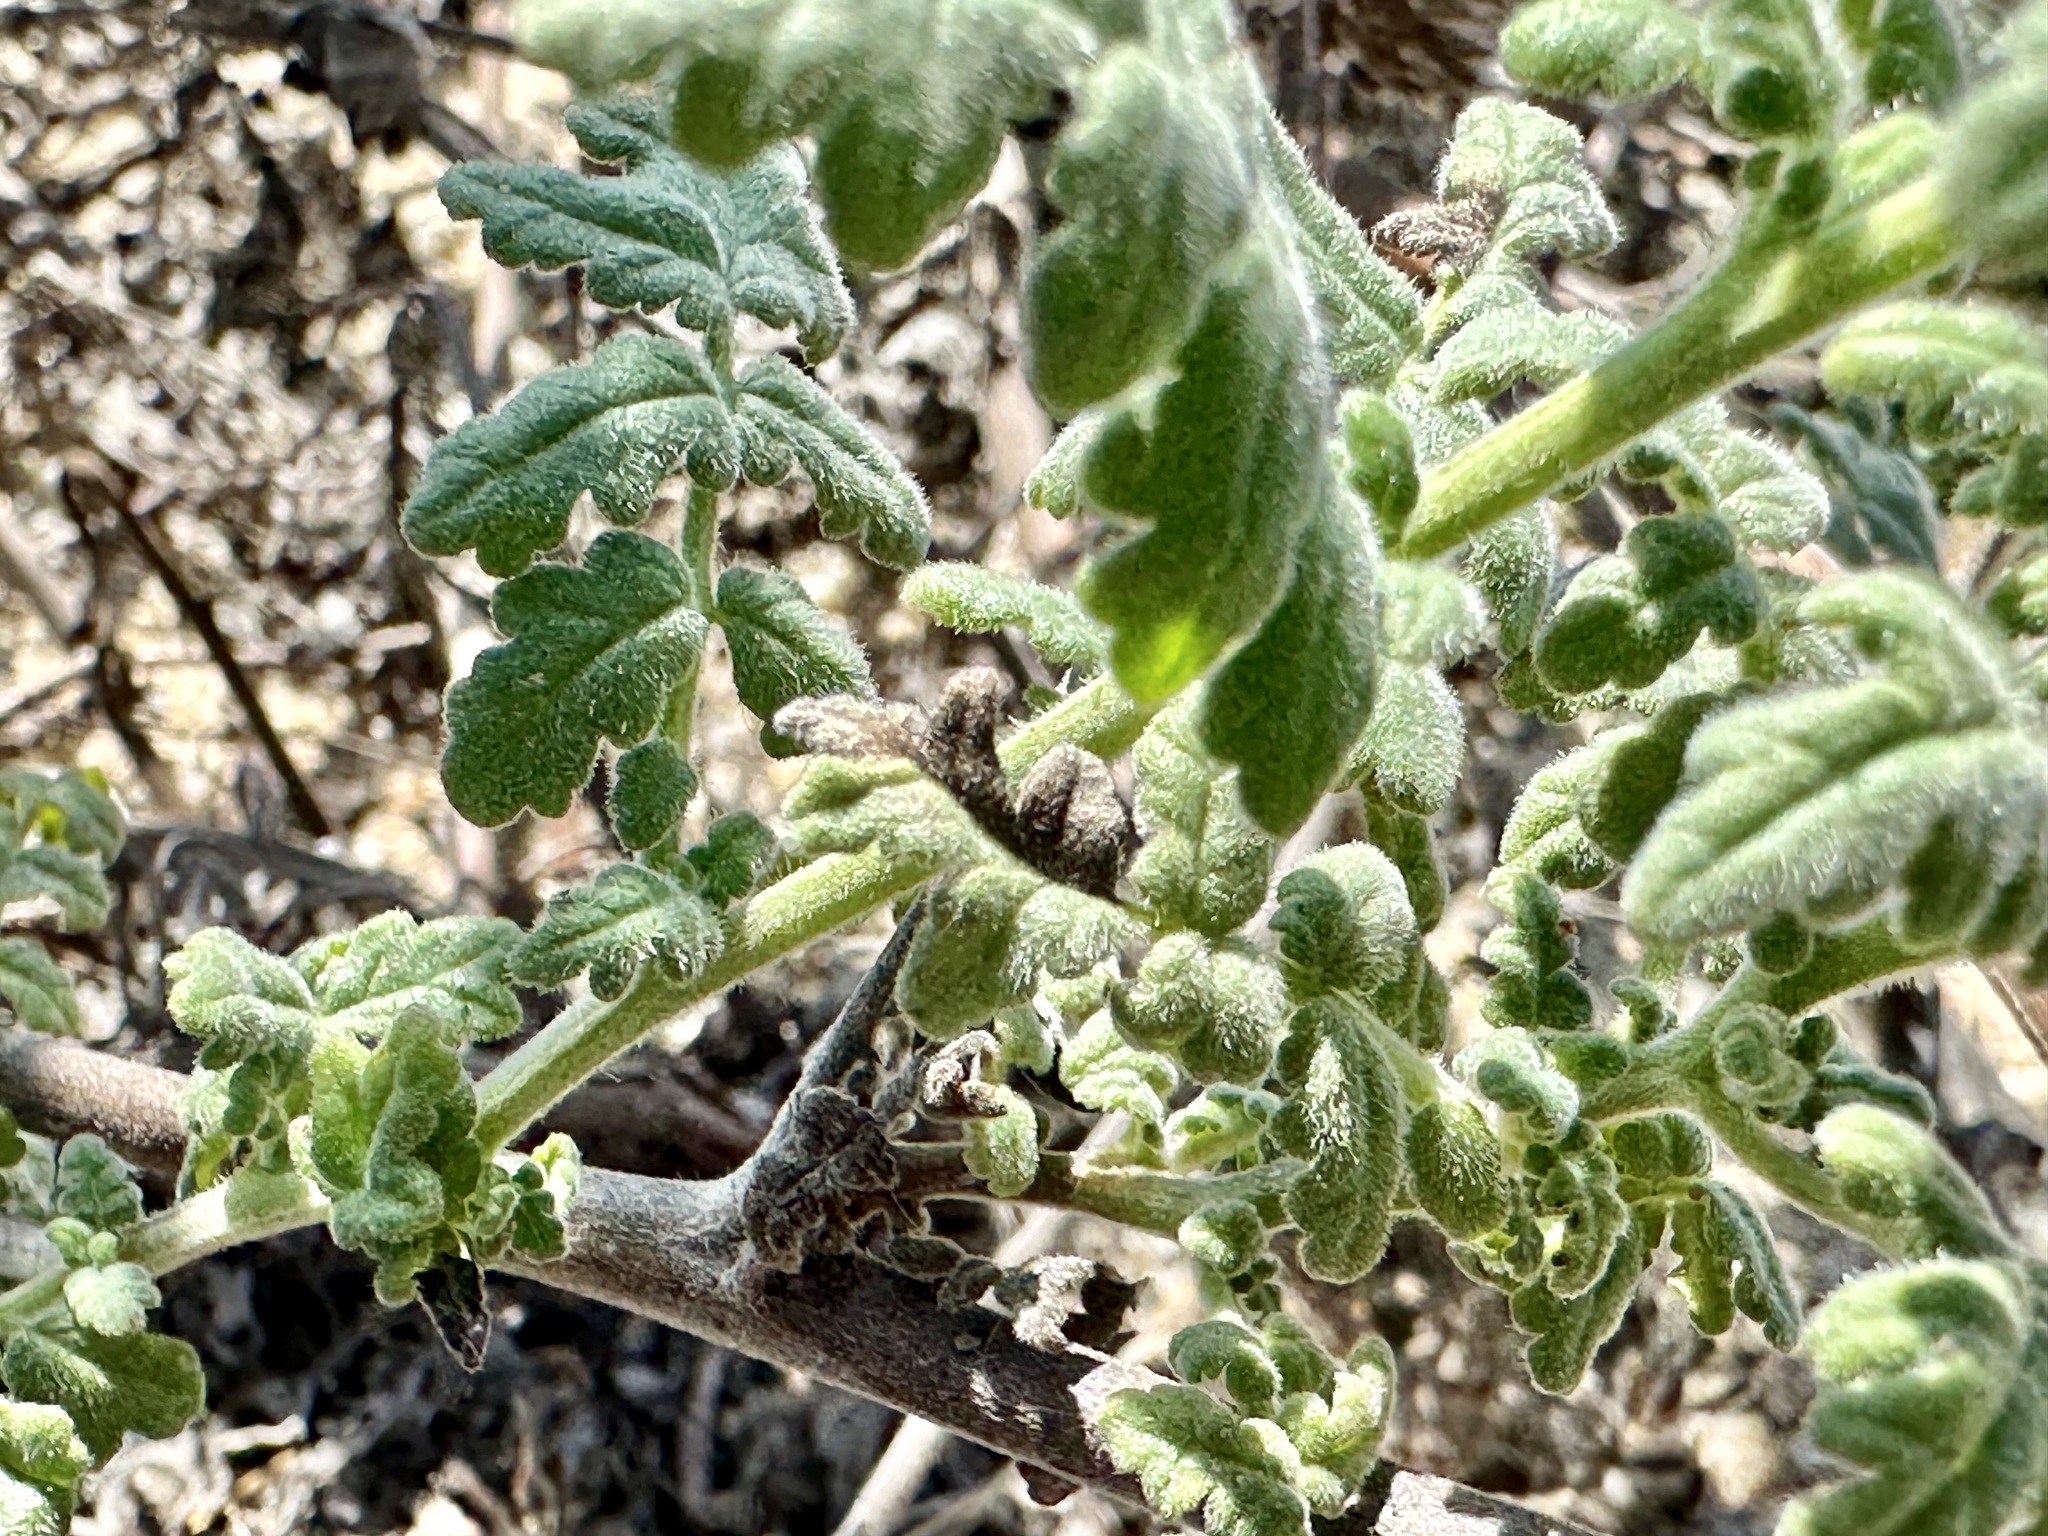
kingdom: Plantae
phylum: Tracheophyta
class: Magnoliopsida
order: Boraginales
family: Hydrophyllaceae
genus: Phacelia
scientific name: Phacelia ramosissima
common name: Branching phacelia
